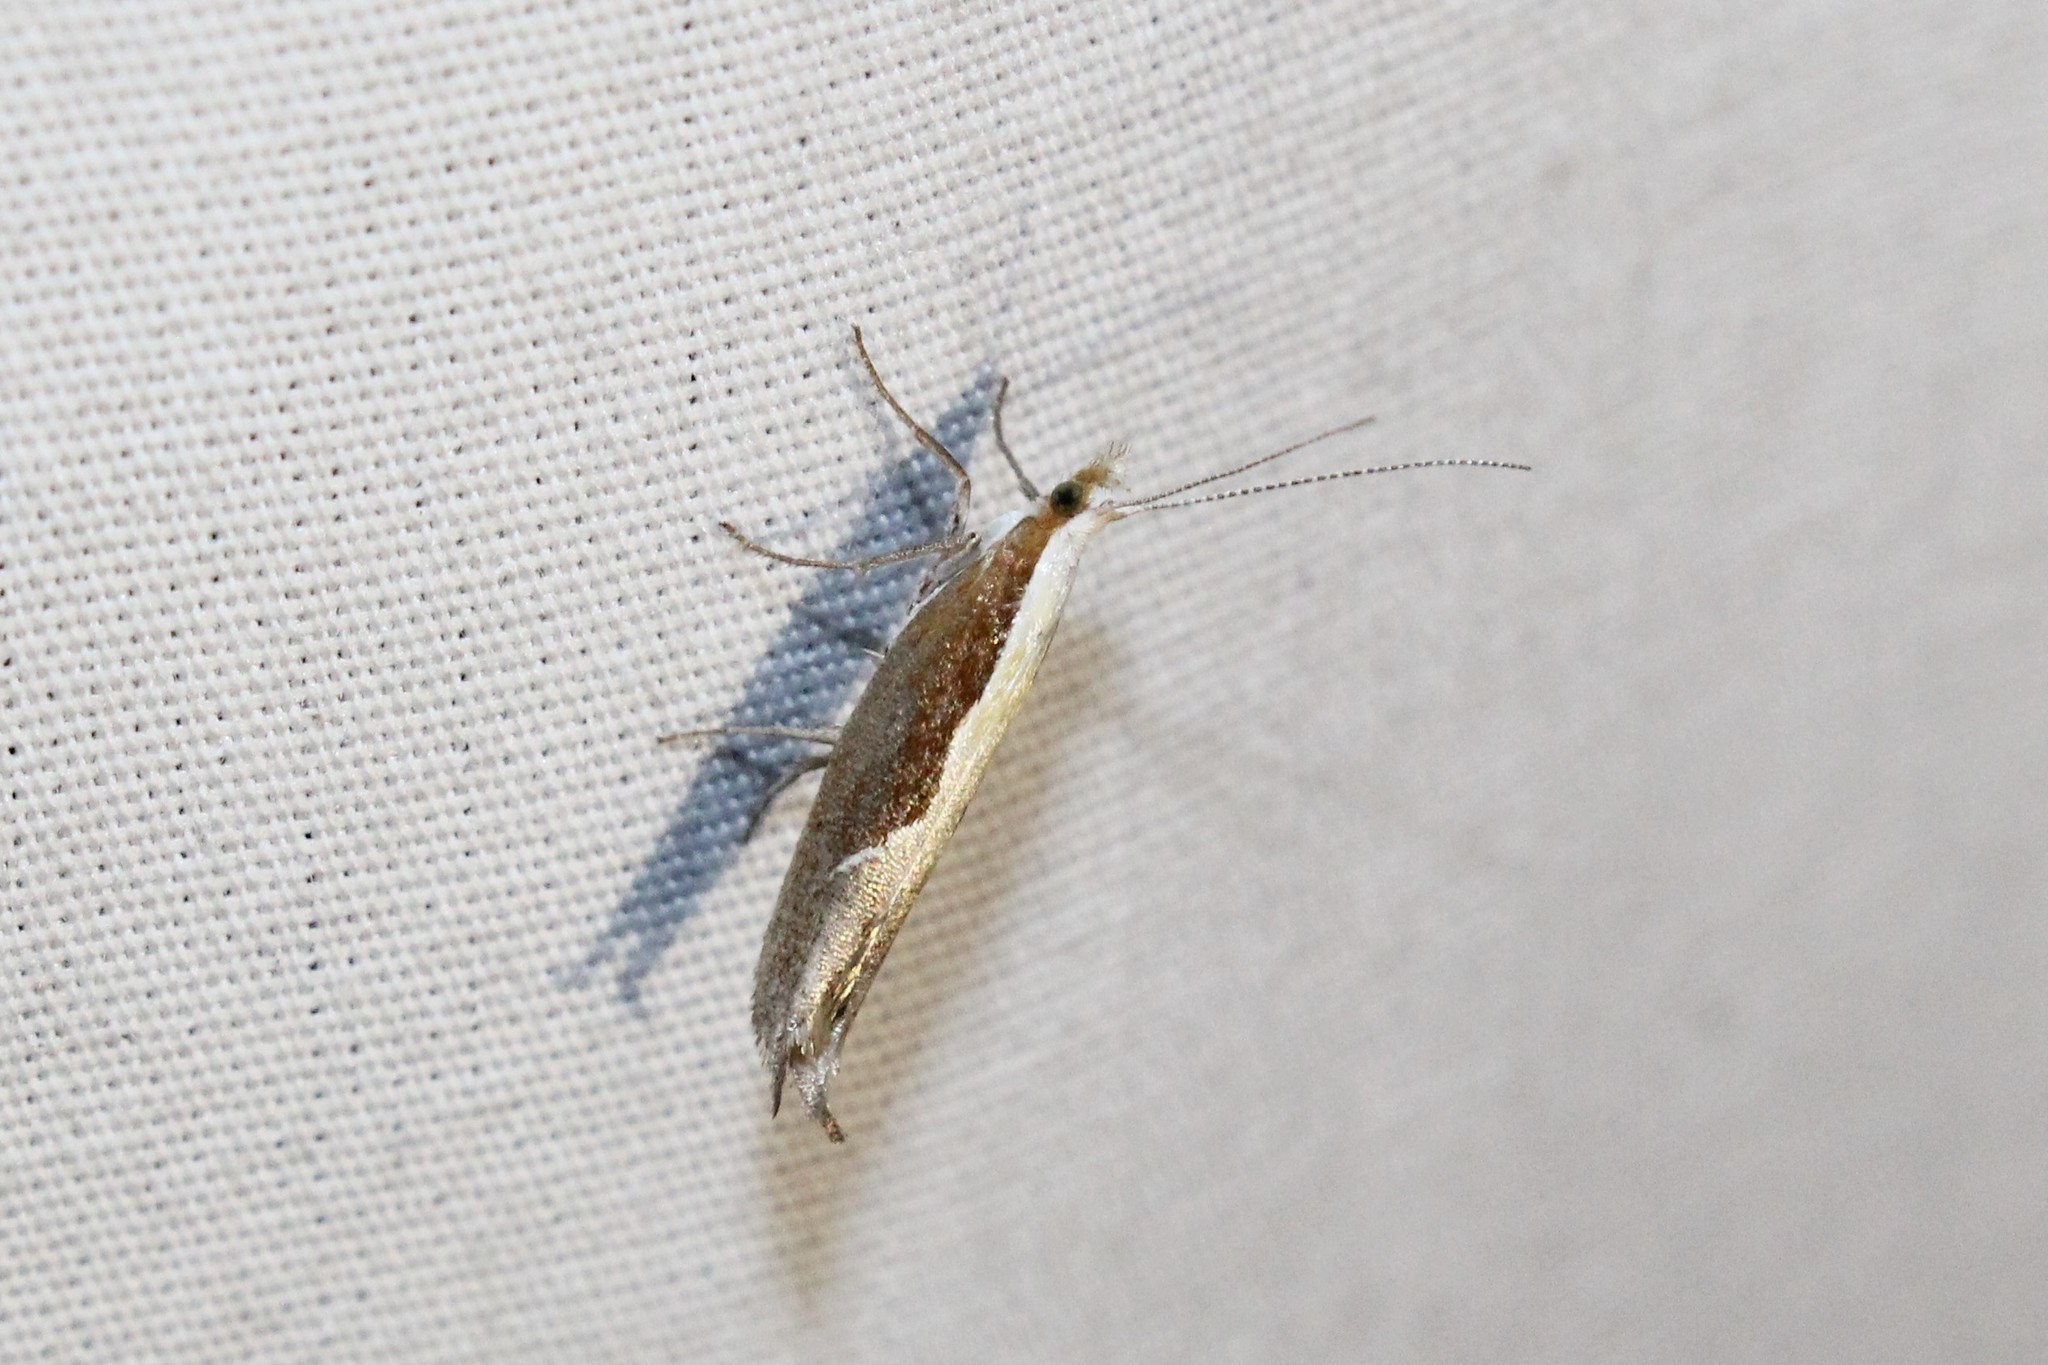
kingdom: Animalia
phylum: Arthropoda
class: Insecta
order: Lepidoptera
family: Ypsolophidae
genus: Ypsolopha
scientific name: Ypsolopha dentella
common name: Honeysuckle moth
